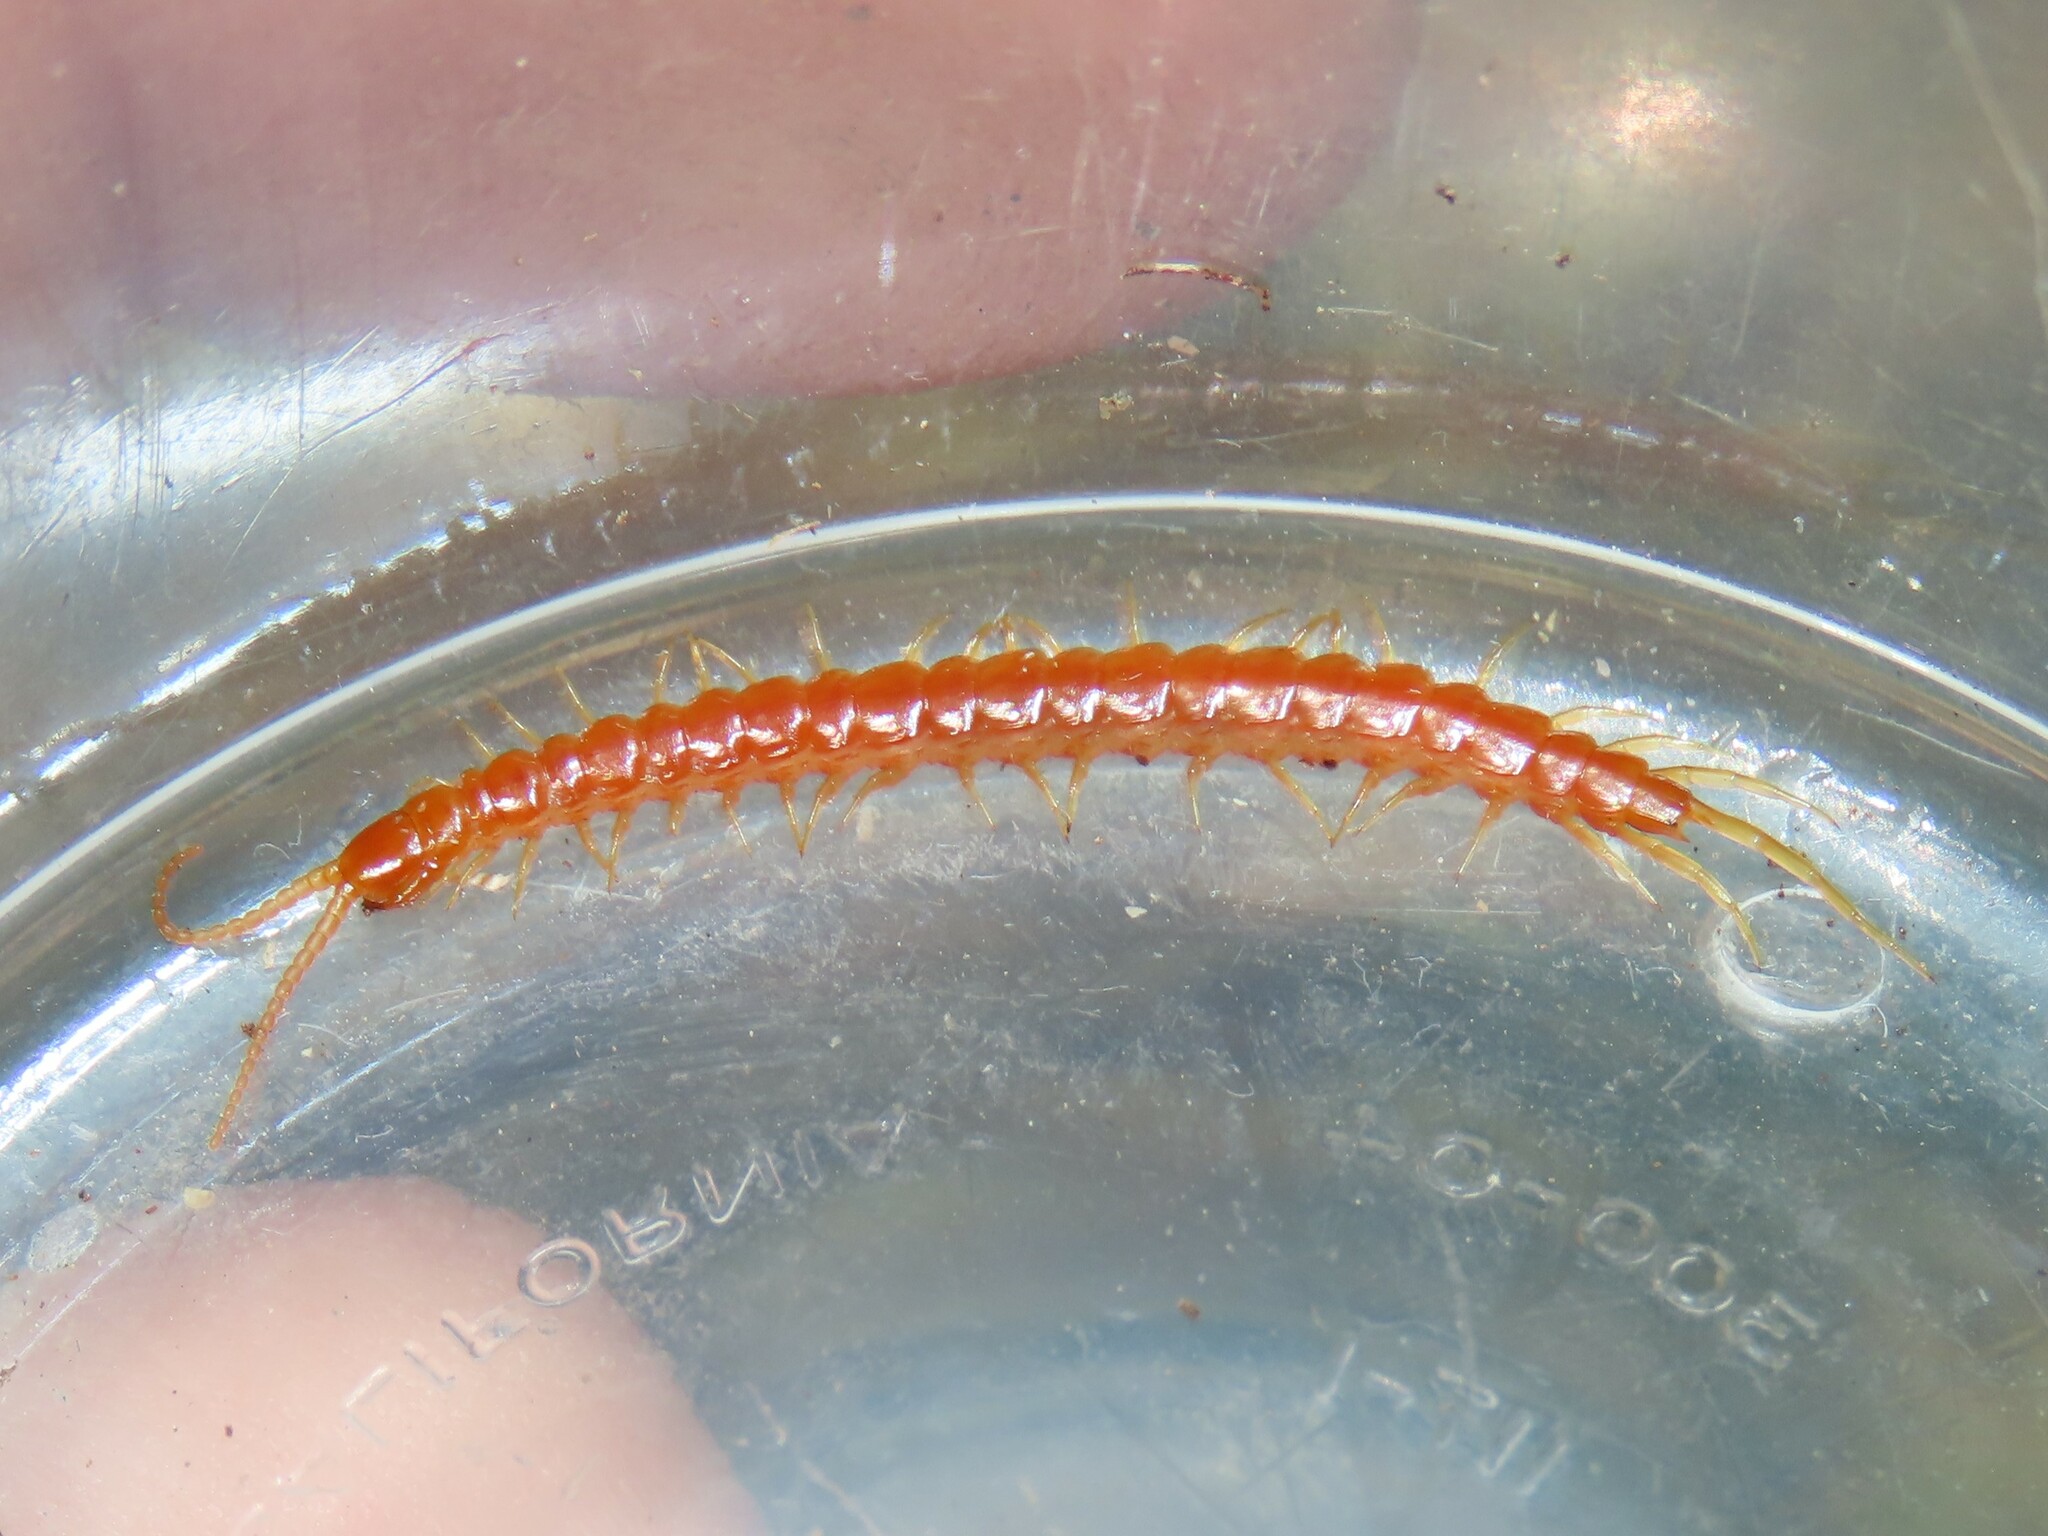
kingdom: Animalia
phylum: Arthropoda
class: Chilopoda
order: Scolopendromorpha
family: Scolopocryptopidae
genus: Scolopocryptops
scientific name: Scolopocryptops sexspinosus
